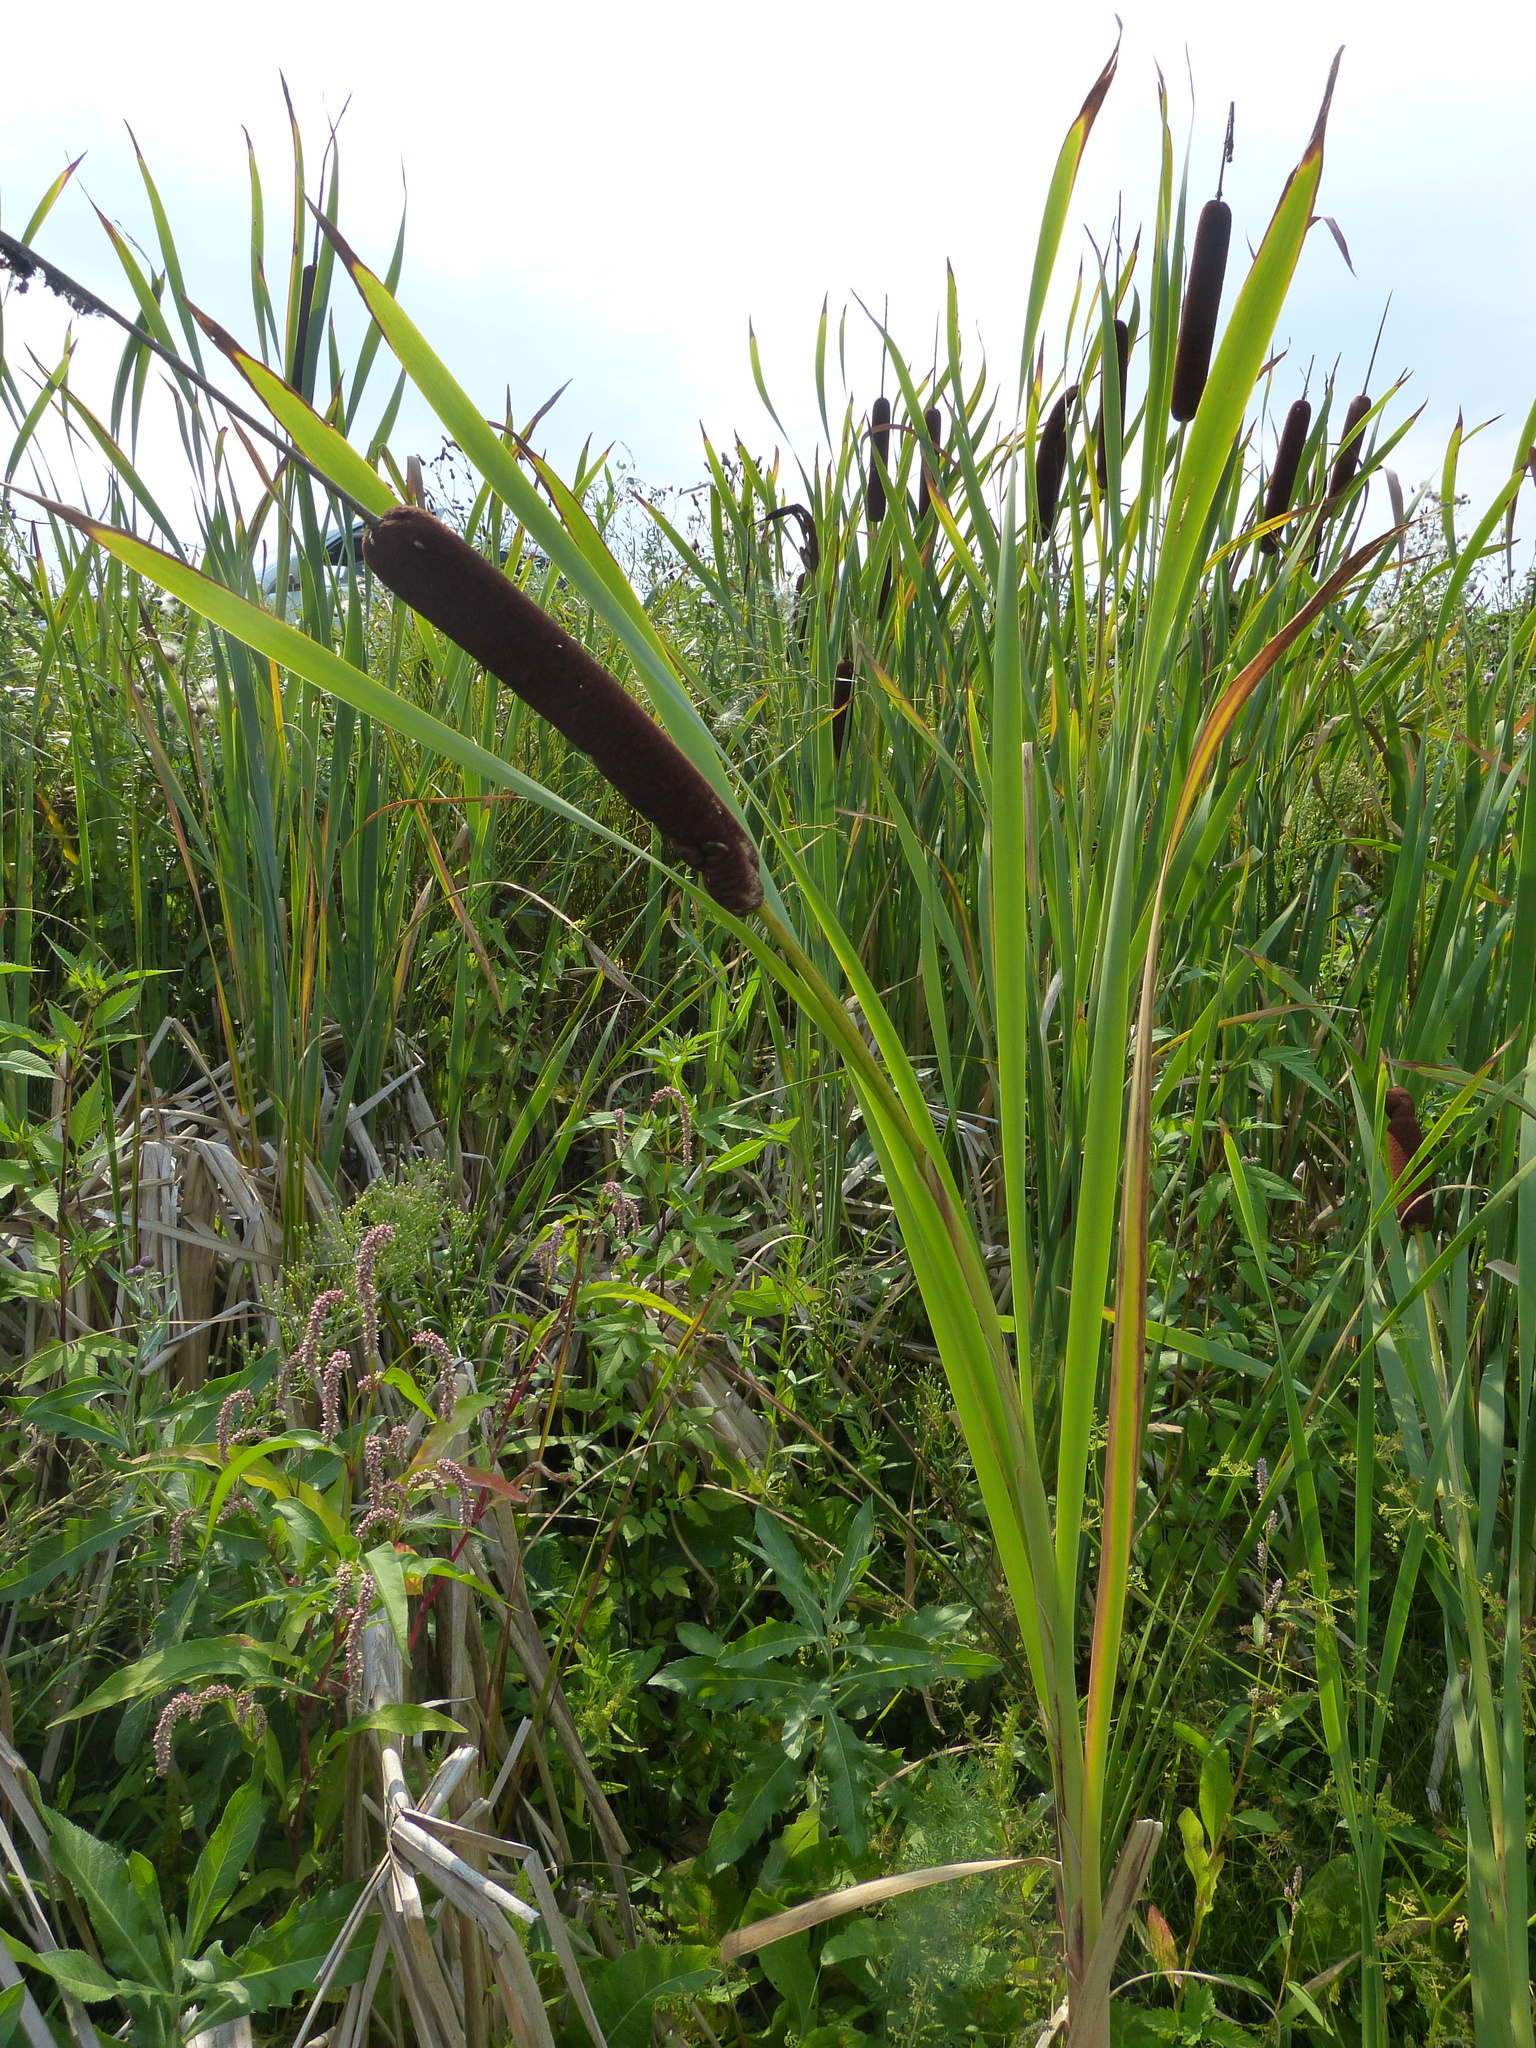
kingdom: Plantae
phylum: Tracheophyta
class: Liliopsida
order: Poales
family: Typhaceae
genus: Typha
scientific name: Typha latifolia
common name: Broadleaf cattail
